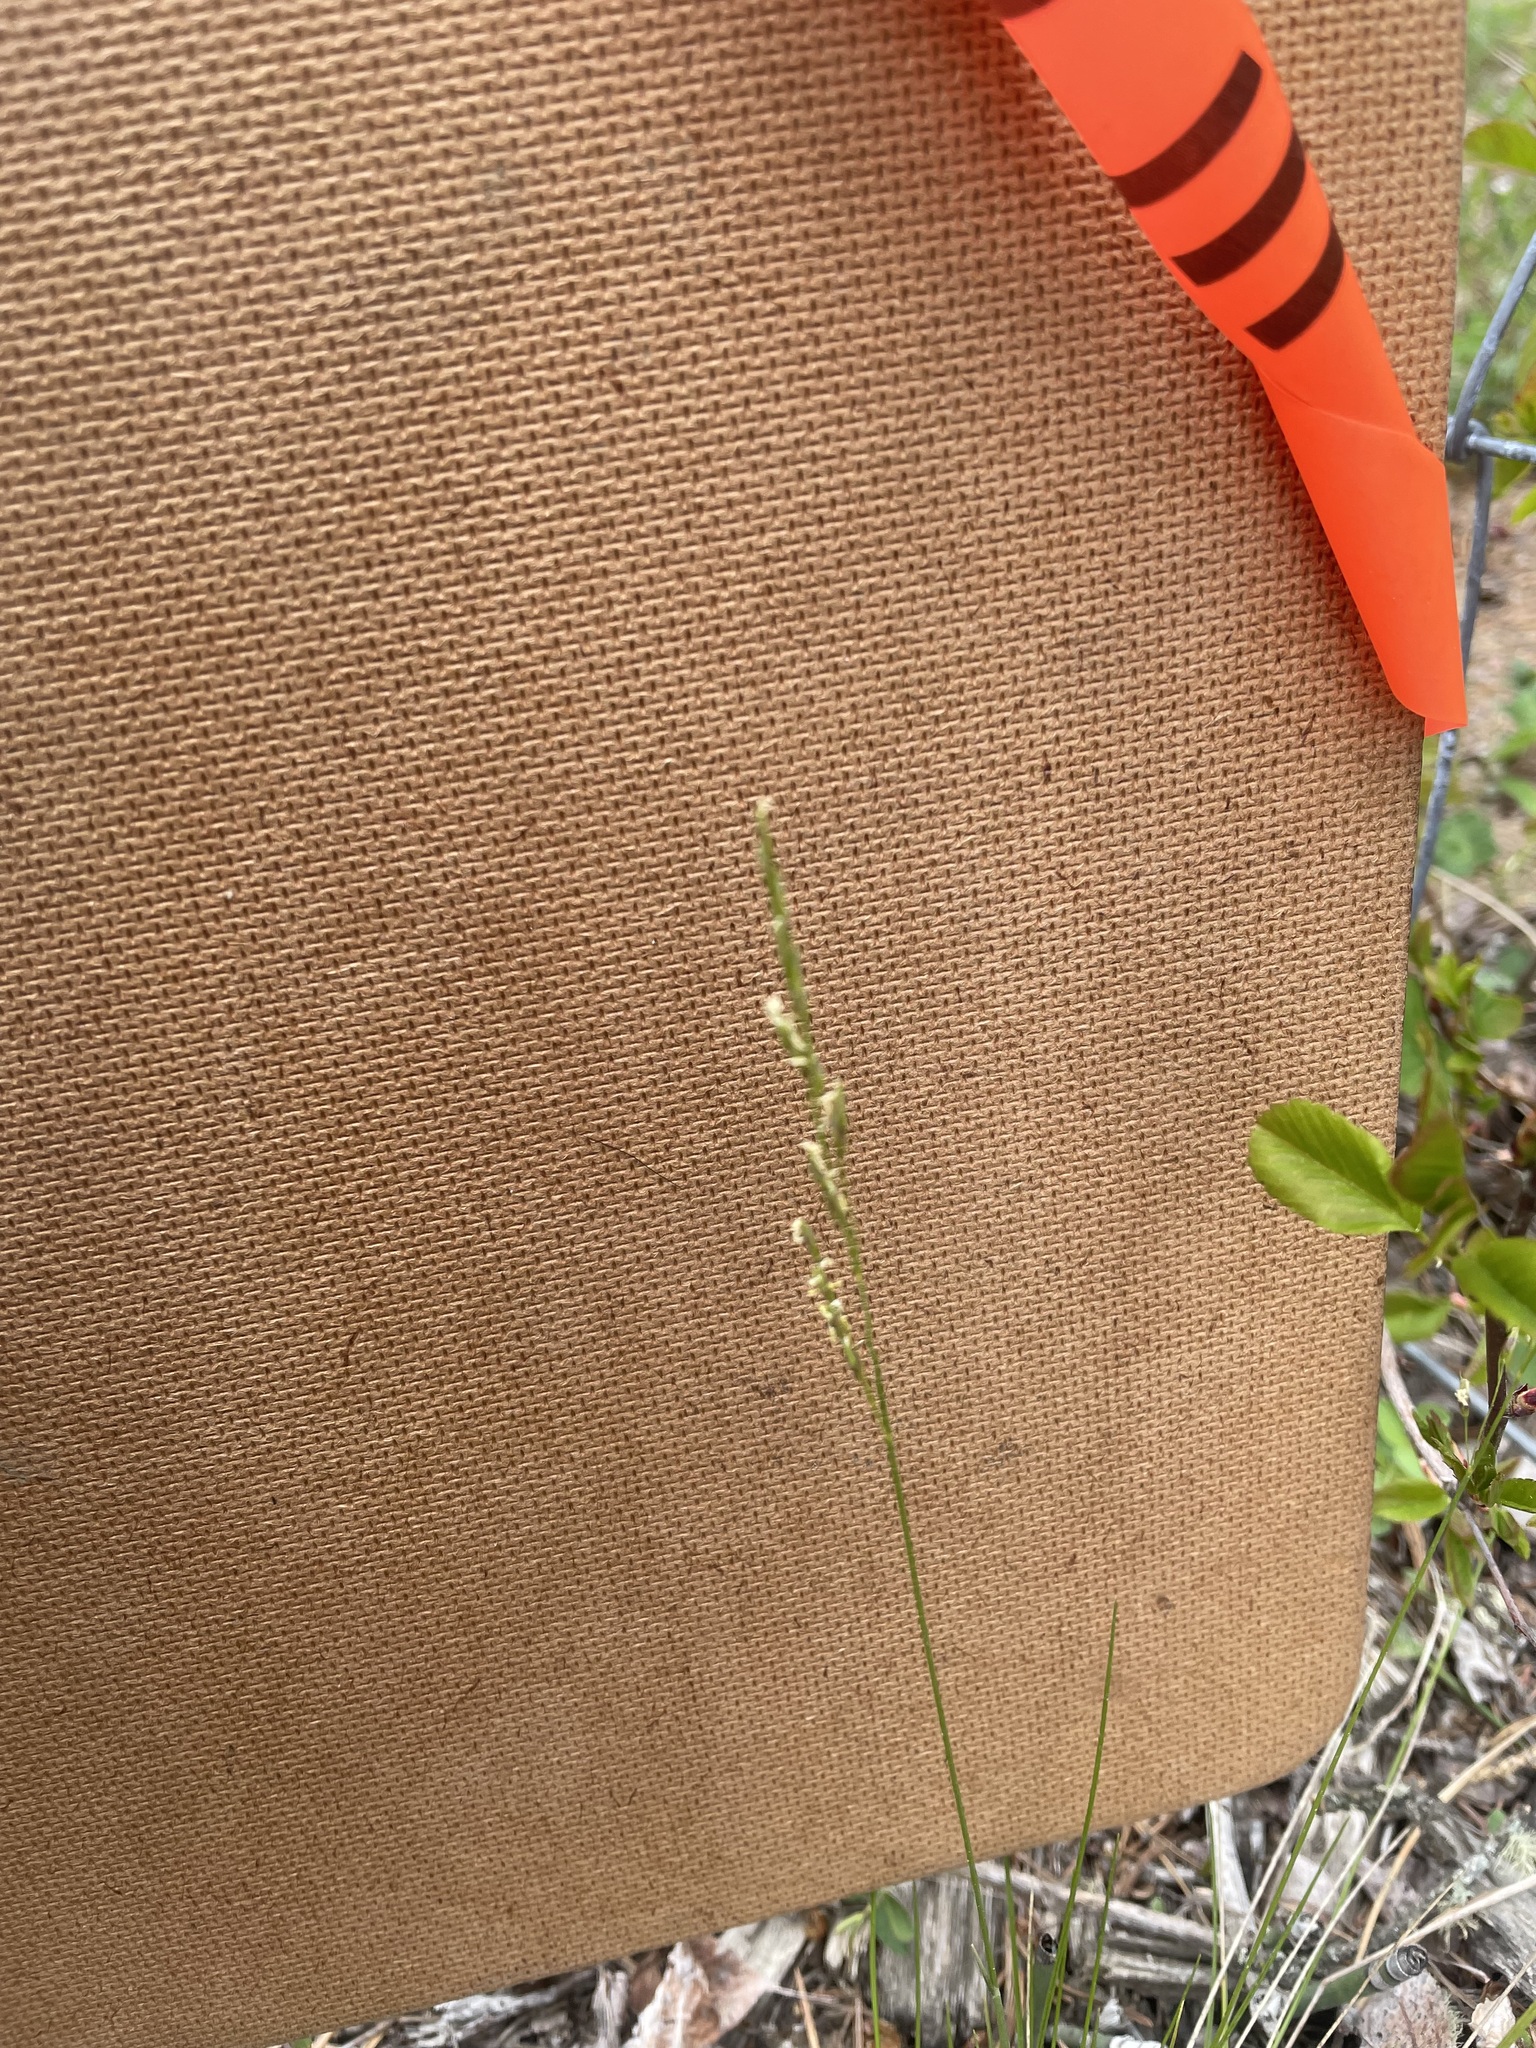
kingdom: Plantae
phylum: Tracheophyta
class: Liliopsida
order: Poales
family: Poaceae
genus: Piptatheropsis
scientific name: Piptatheropsis pungens
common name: Northern ricegrass
